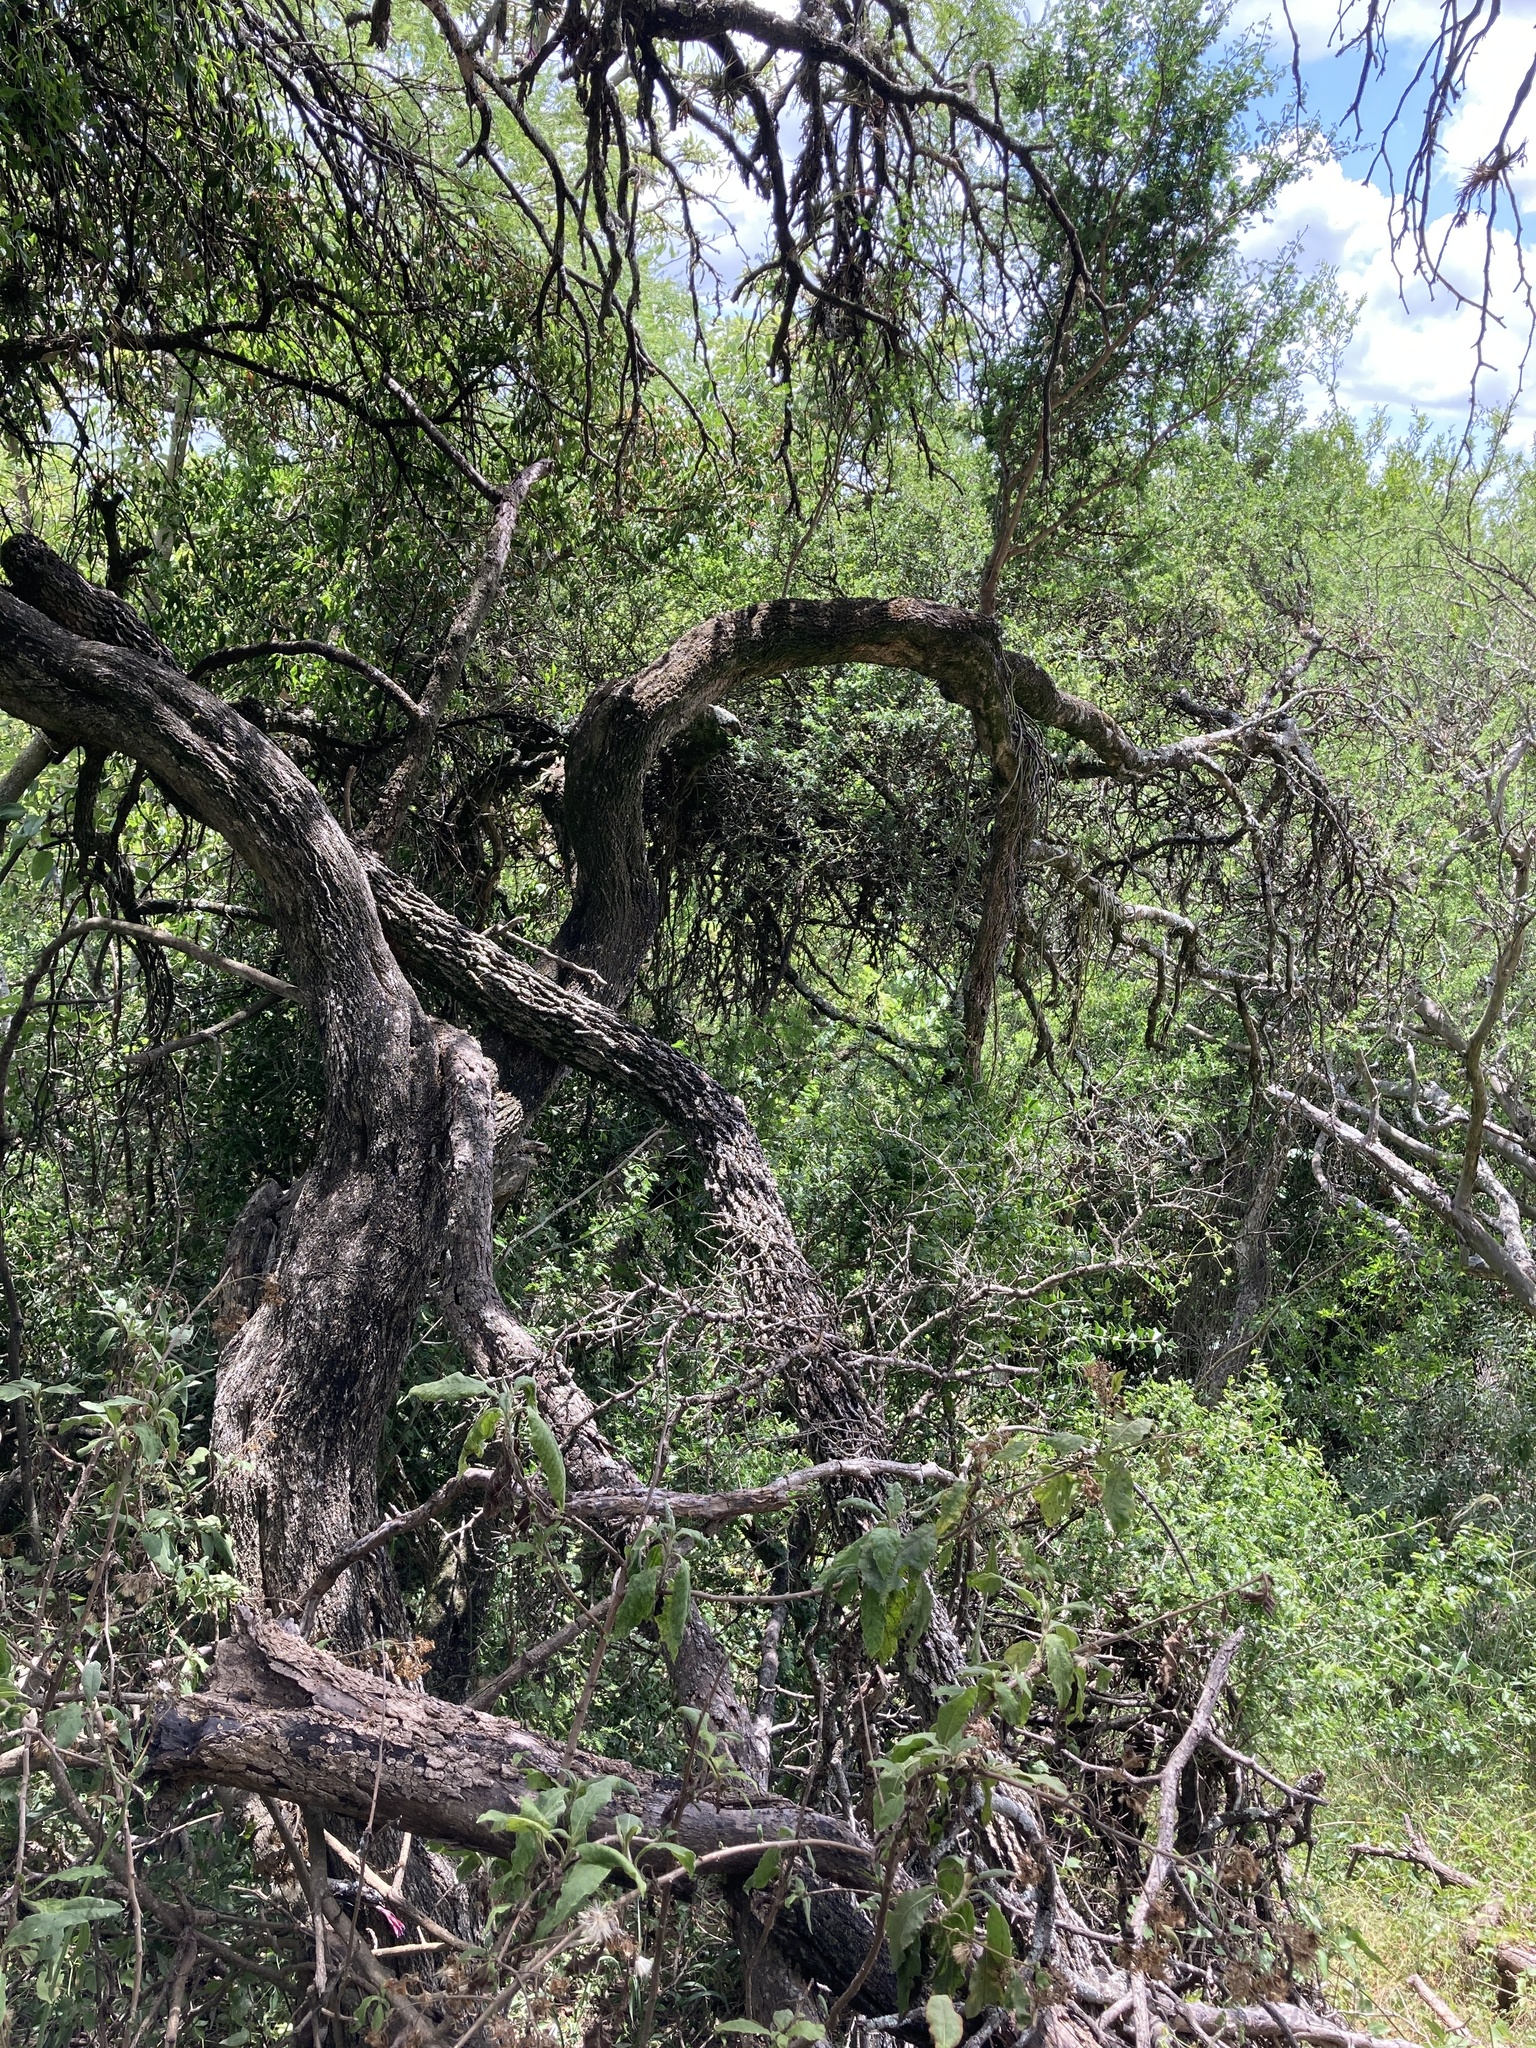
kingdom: Plantae
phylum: Tracheophyta
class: Magnoliopsida
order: Zygophyllales
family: Zygophyllaceae
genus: Porlieria
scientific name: Porlieria microphylla
